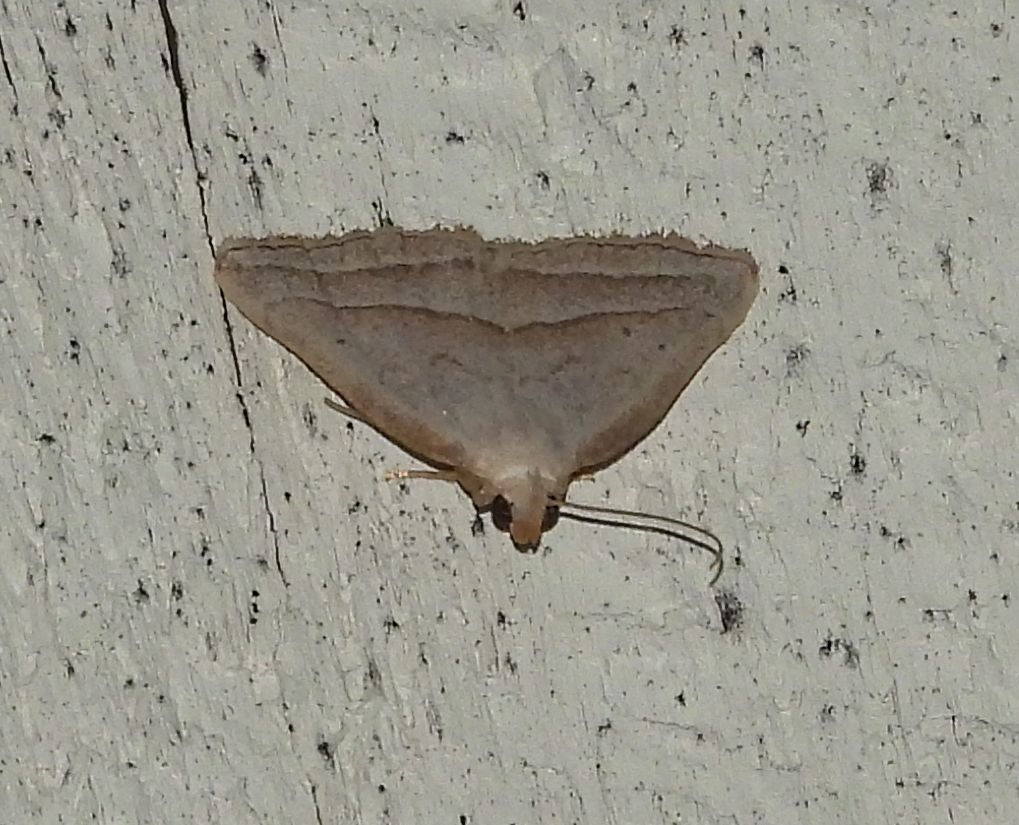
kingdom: Animalia
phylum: Arthropoda
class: Insecta
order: Lepidoptera
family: Erebidae
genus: Macrochilo
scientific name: Macrochilo absorptalis
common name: Slant-lined owlet
